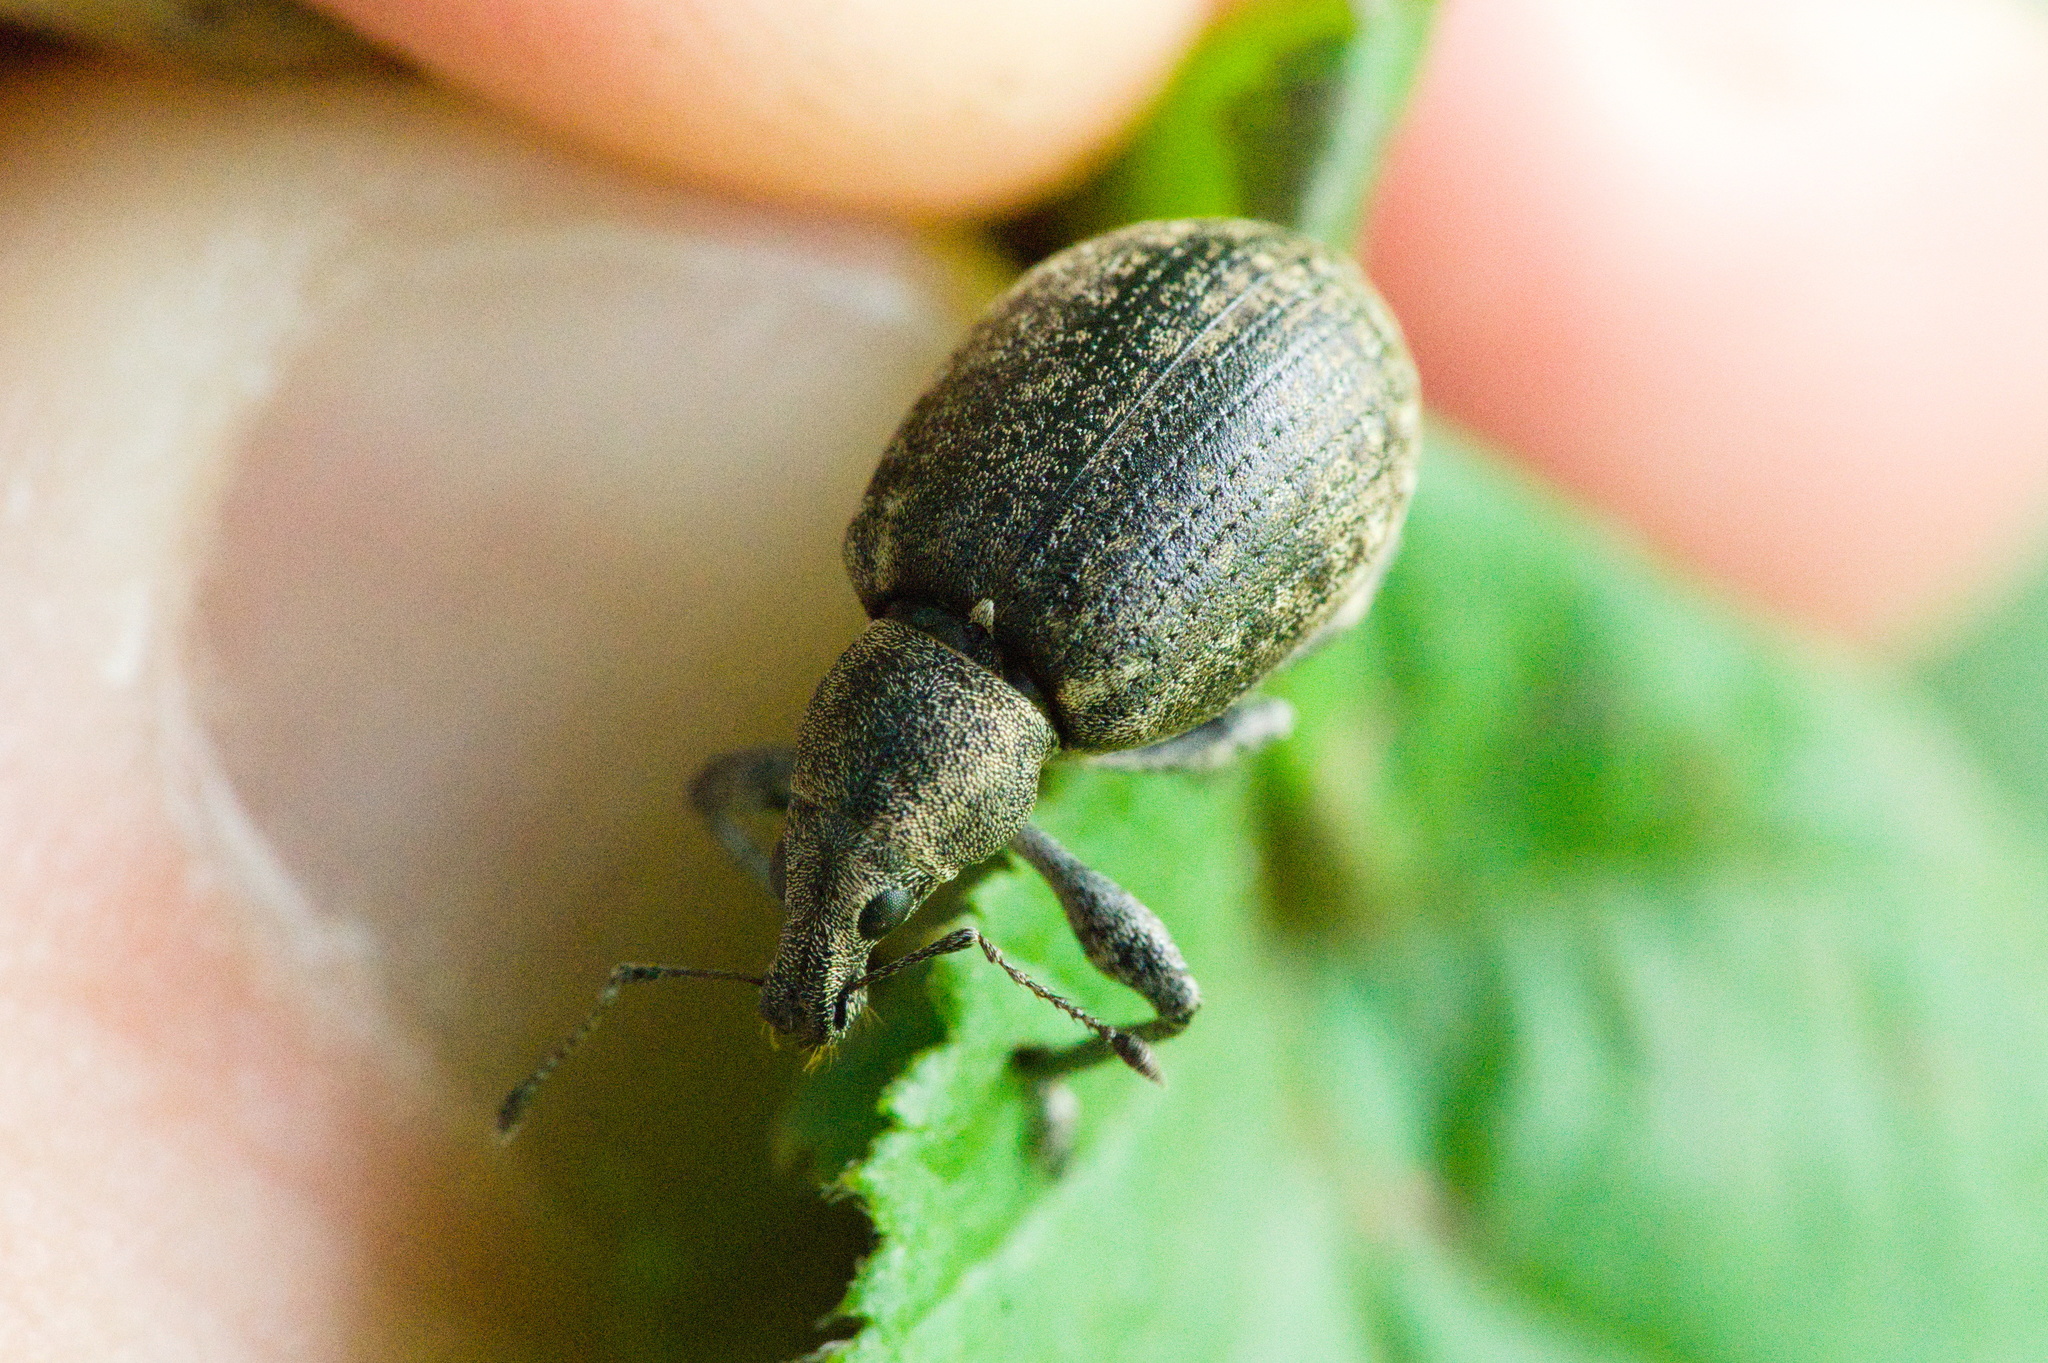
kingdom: Animalia
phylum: Arthropoda
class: Insecta
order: Coleoptera
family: Curculionidae
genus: Liophloeus
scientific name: Liophloeus tessulatus
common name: Weevil
